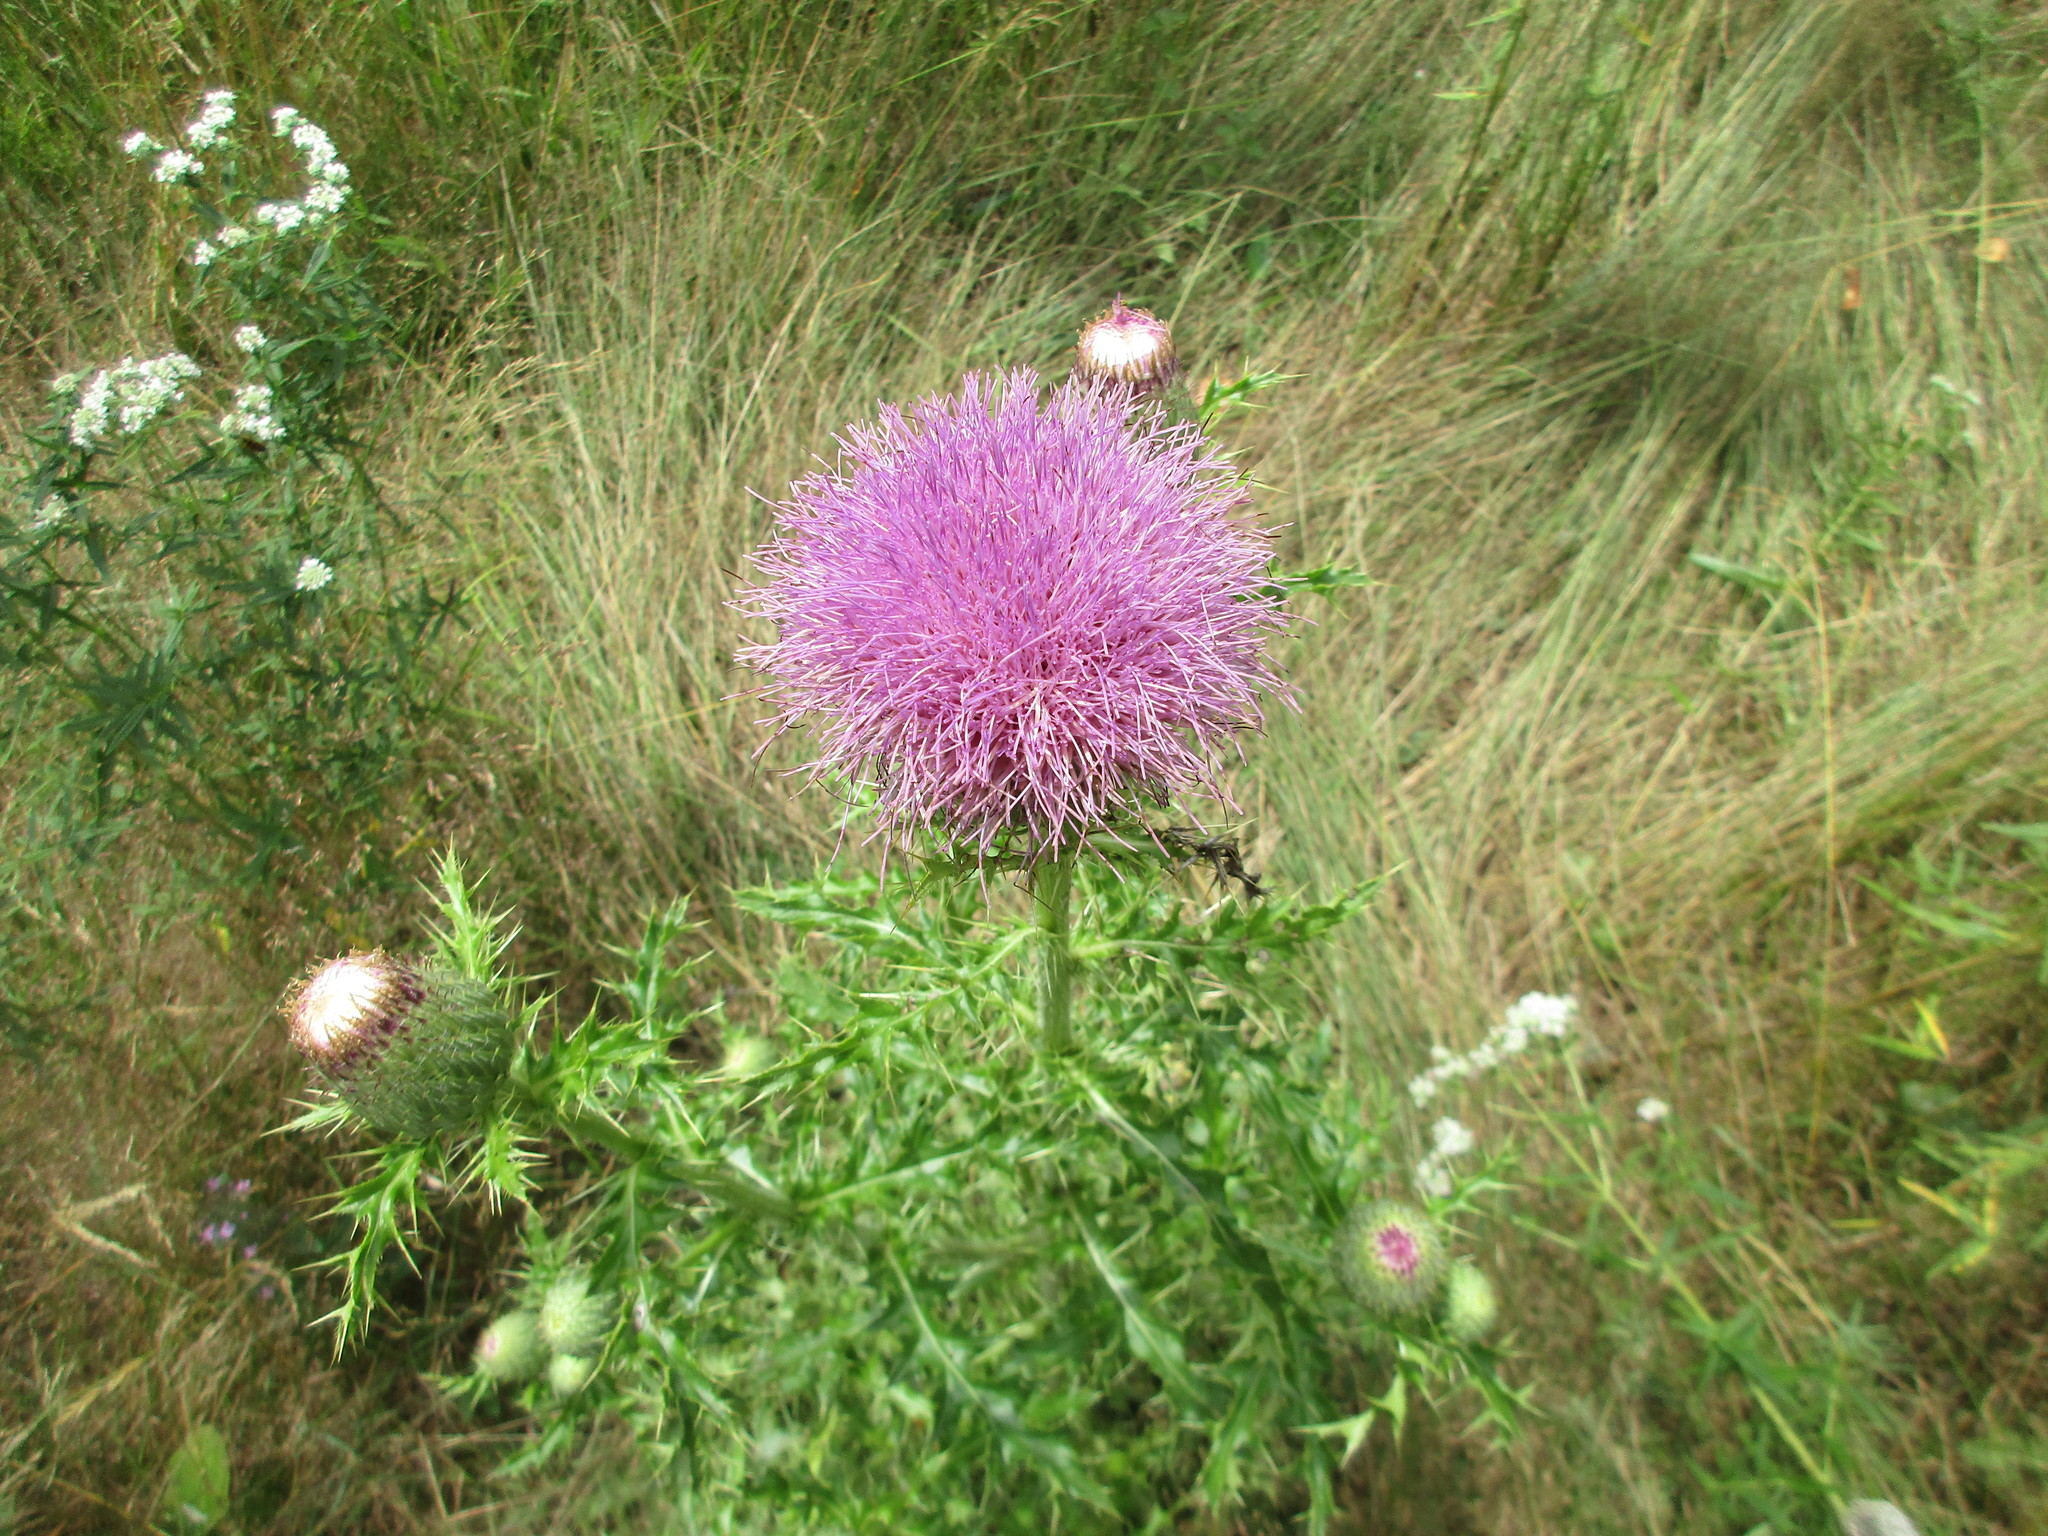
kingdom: Plantae
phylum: Tracheophyta
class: Magnoliopsida
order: Asterales
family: Asteraceae
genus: Cirsium
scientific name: Cirsium pumilum
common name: Pasture thistle
